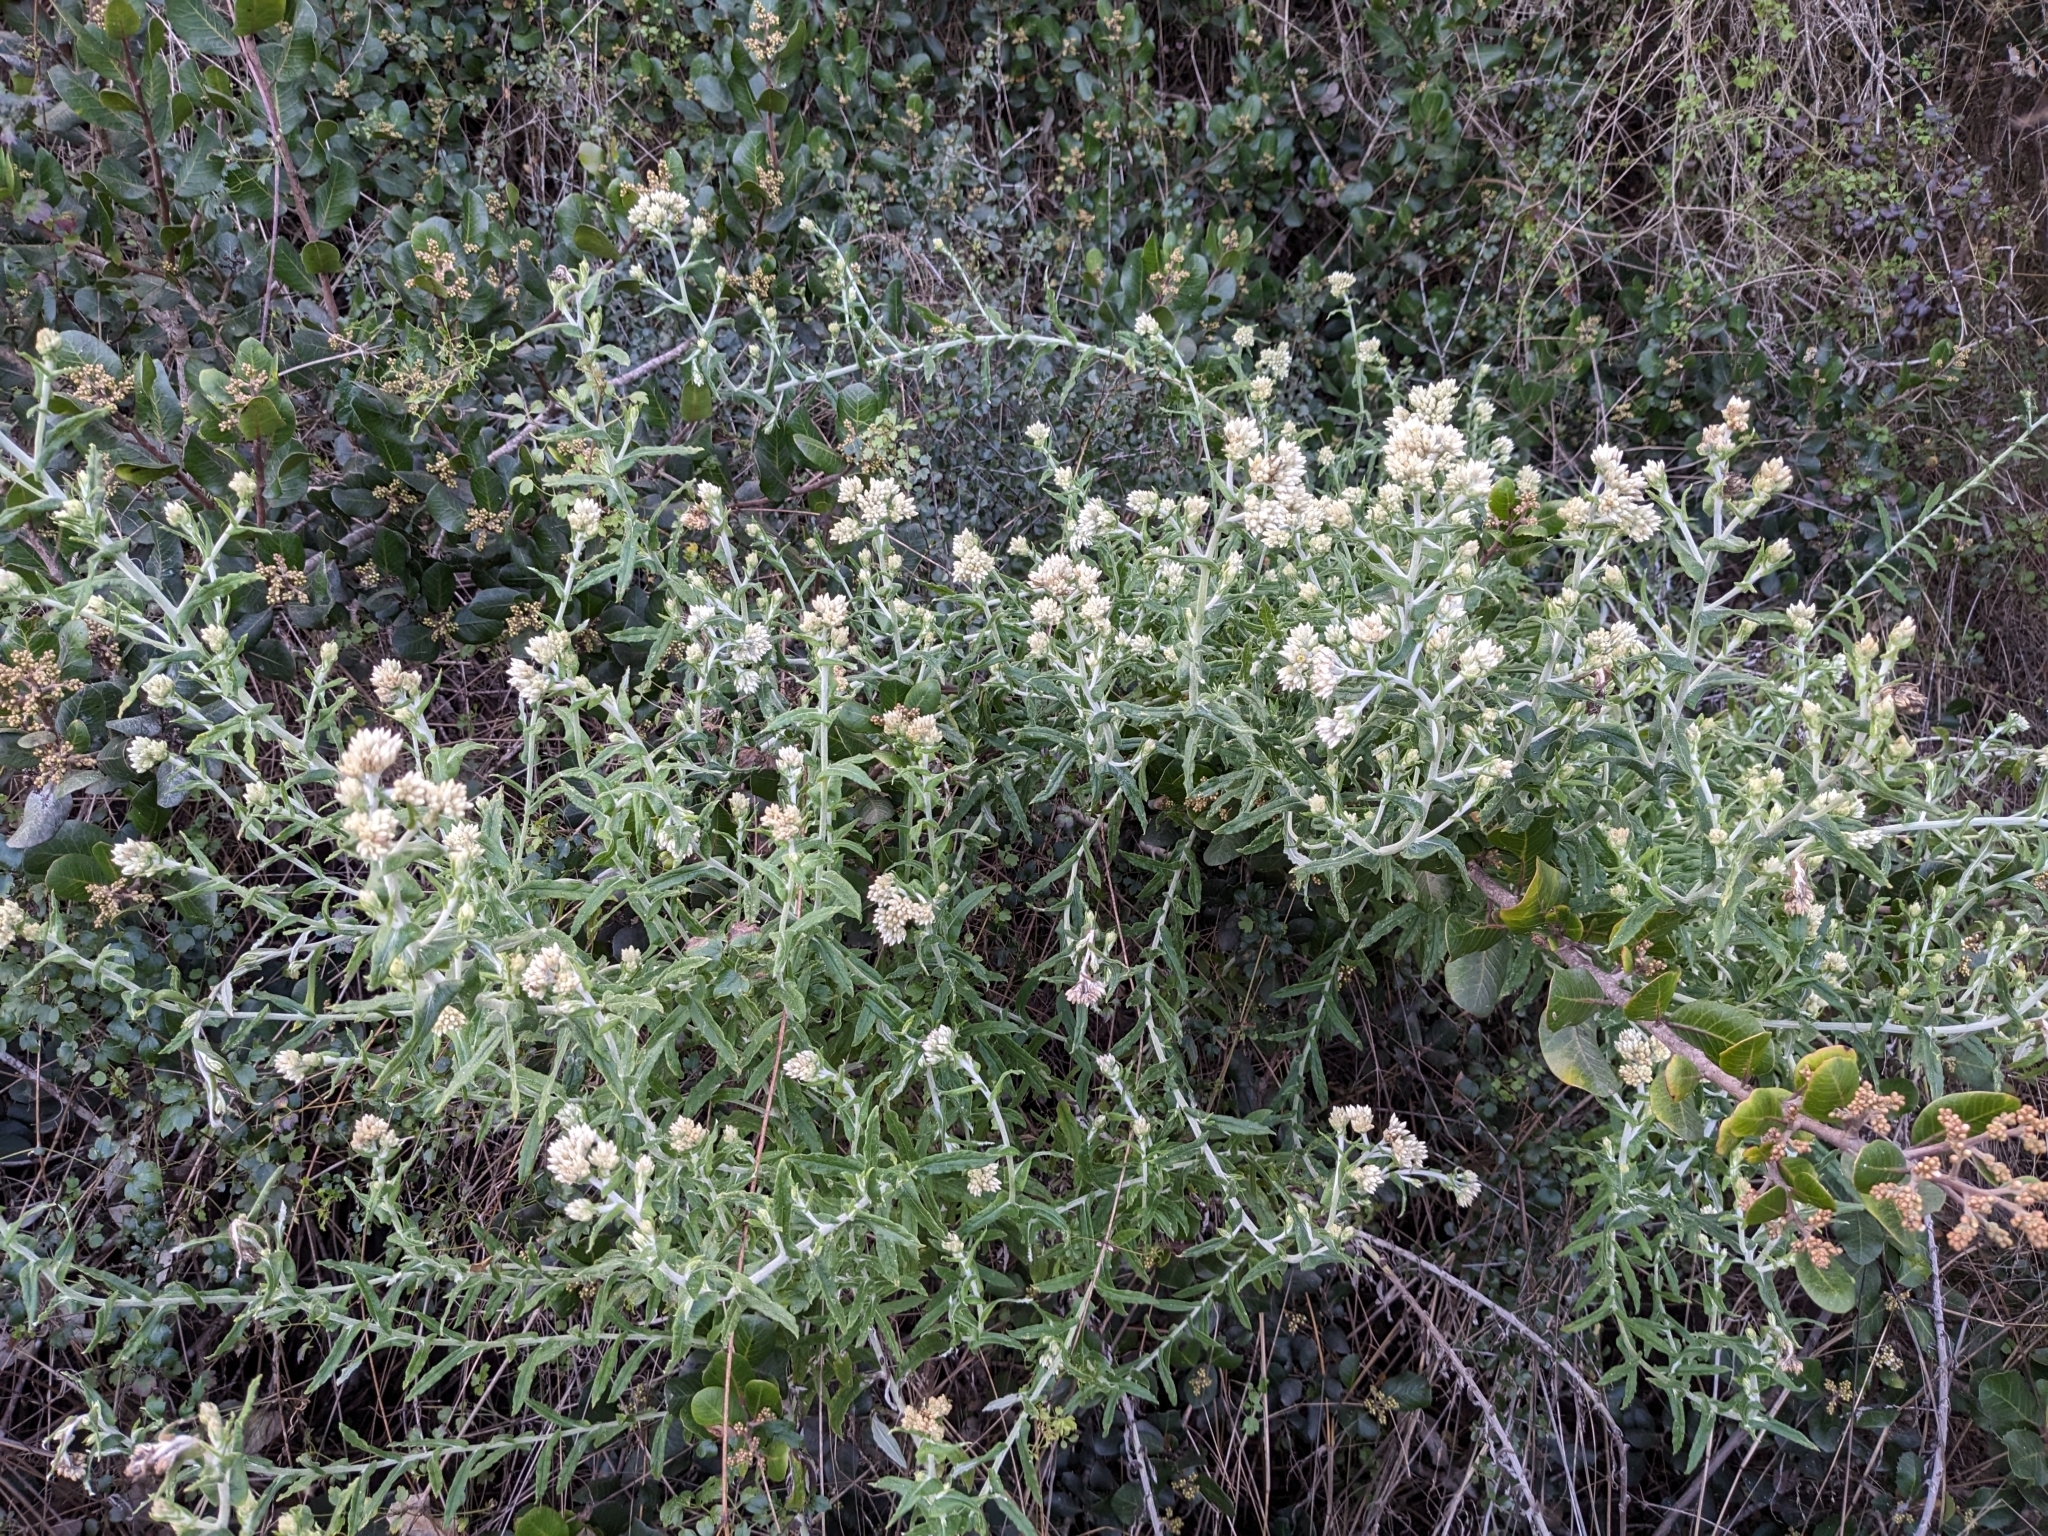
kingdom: Plantae
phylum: Tracheophyta
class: Magnoliopsida
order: Asterales
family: Asteraceae
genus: Pseudognaphalium
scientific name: Pseudognaphalium biolettii
